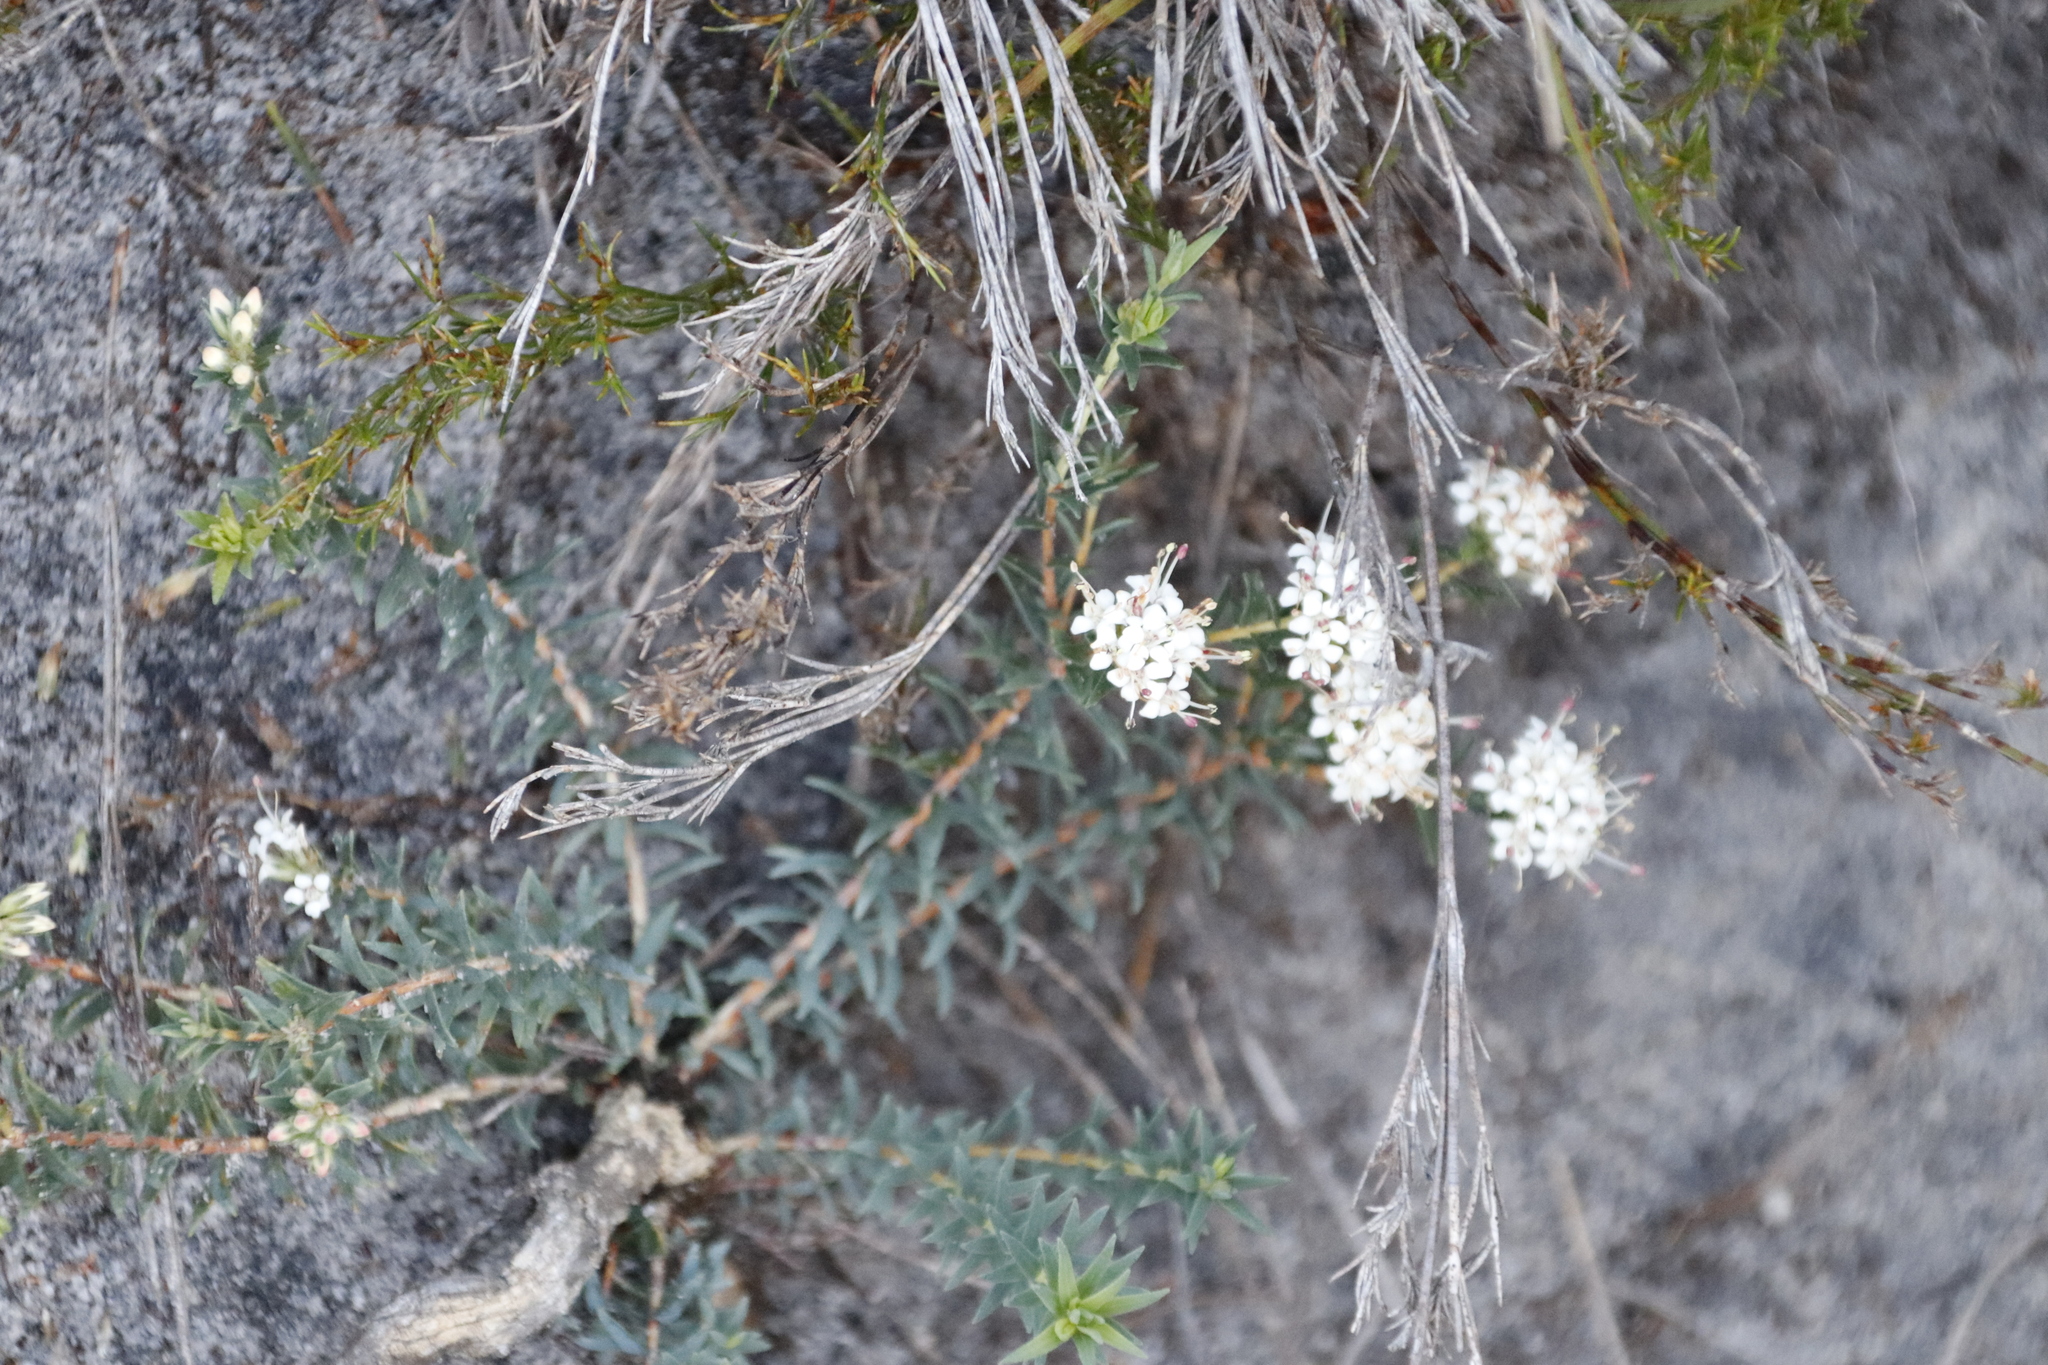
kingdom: Plantae
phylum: Tracheophyta
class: Magnoliopsida
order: Sapindales
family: Rutaceae
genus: Macrostylis
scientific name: Macrostylis villosa
